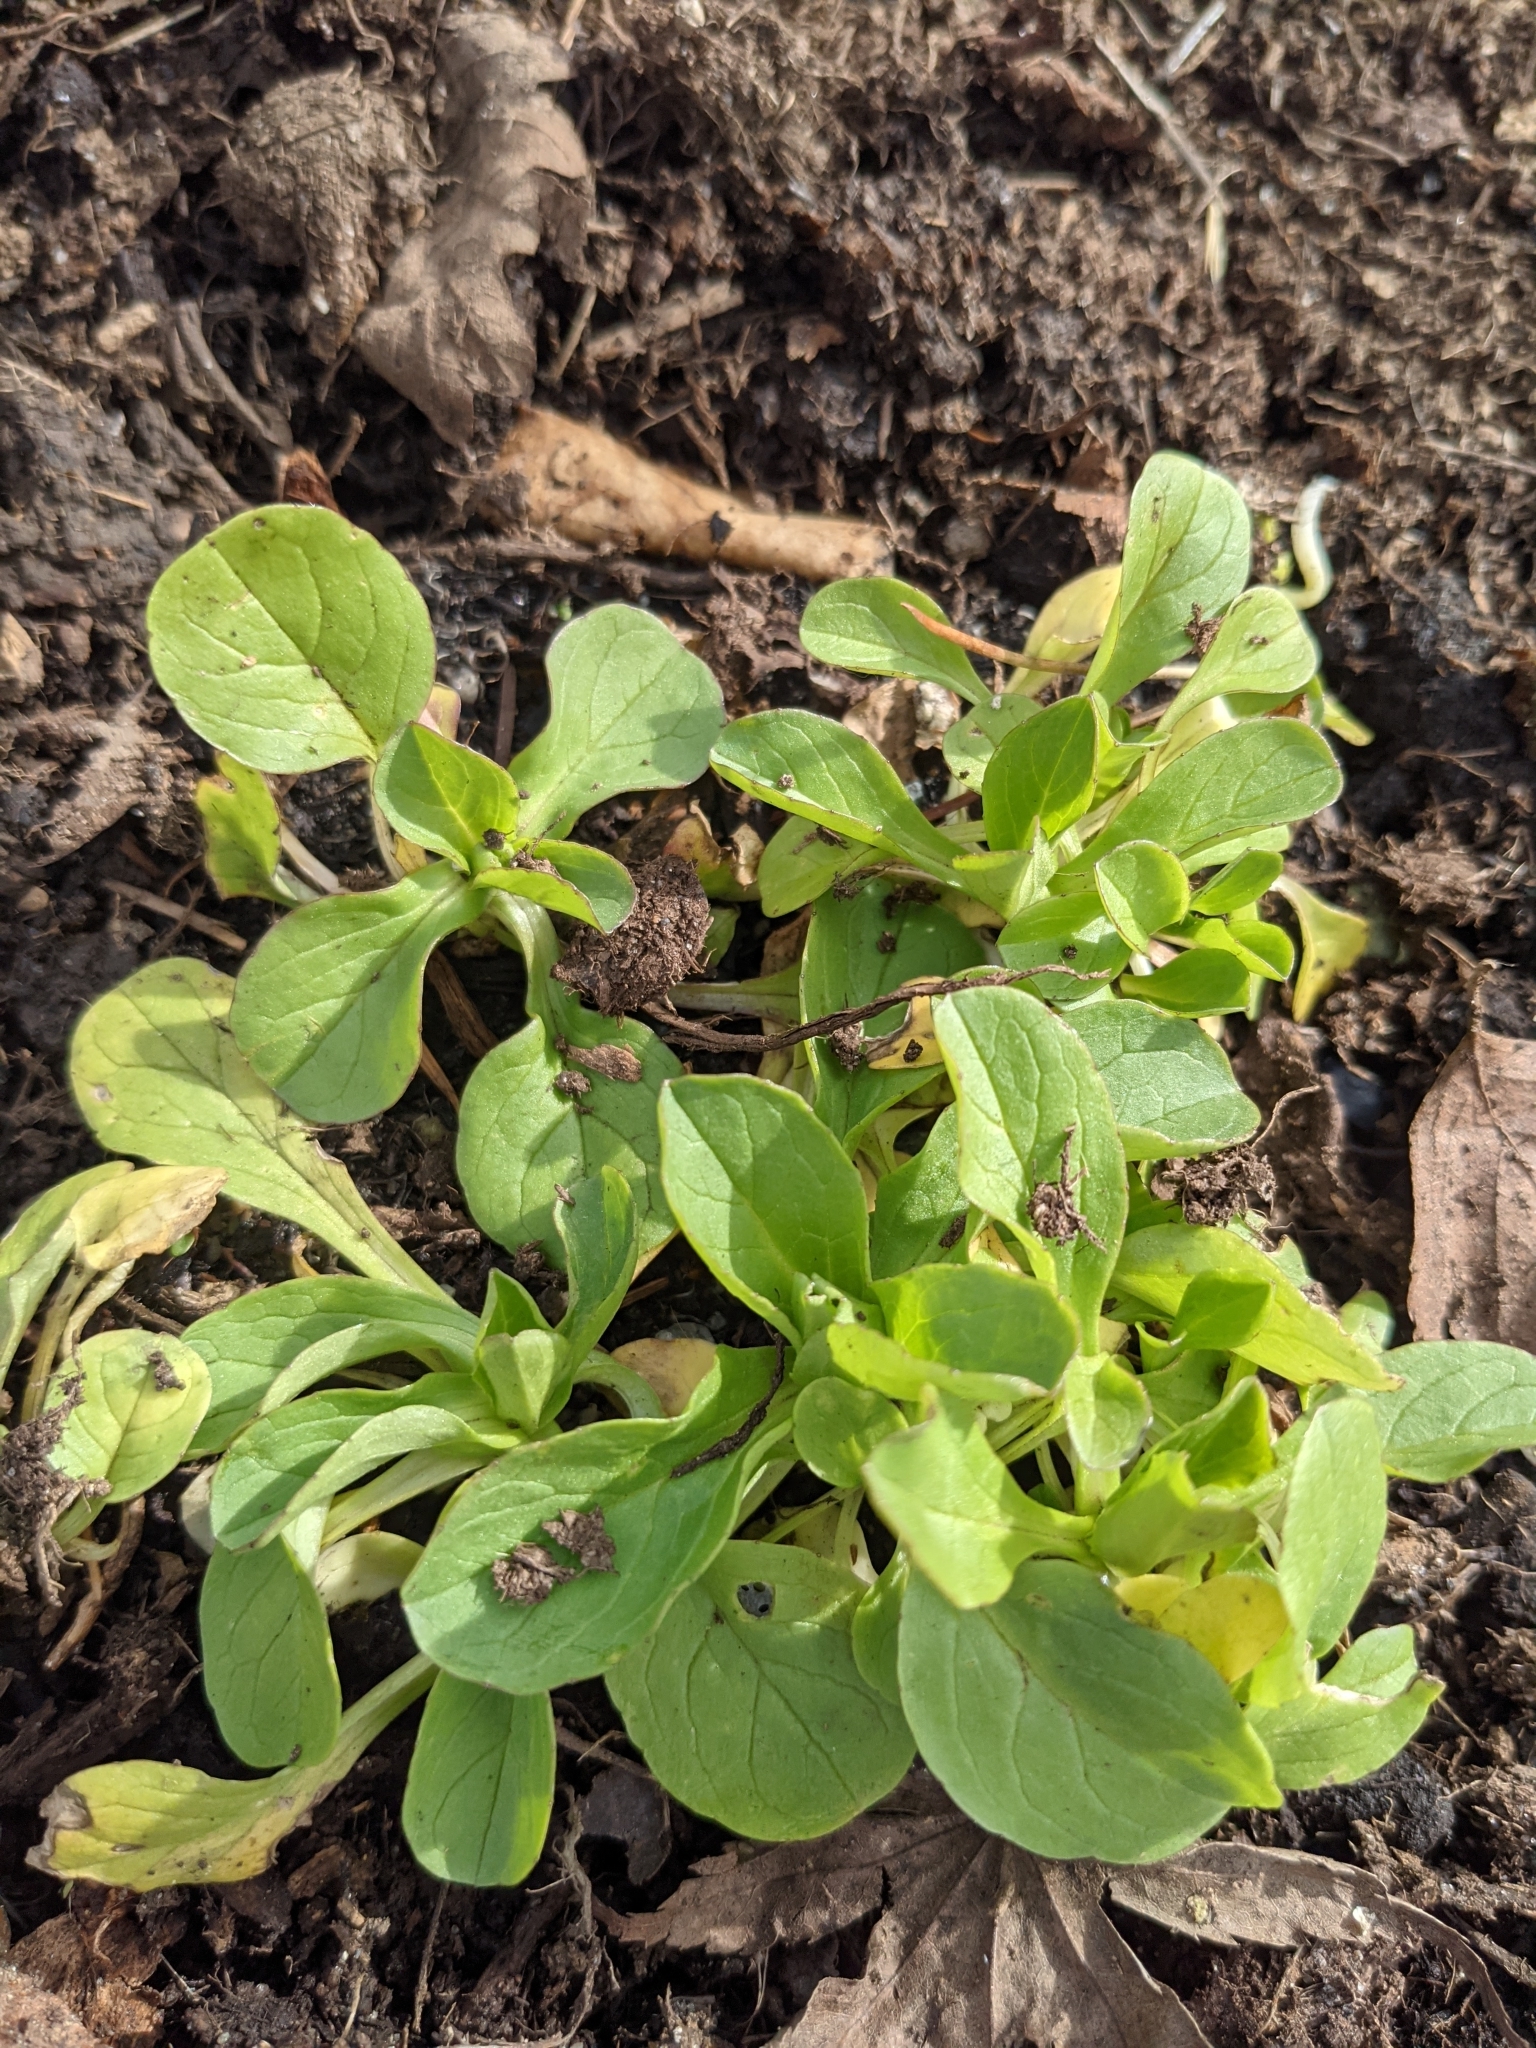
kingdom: Plantae
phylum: Tracheophyta
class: Magnoliopsida
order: Dipsacales
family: Caprifoliaceae
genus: Plectritis
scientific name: Plectritis congesta
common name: Pink plectritis
